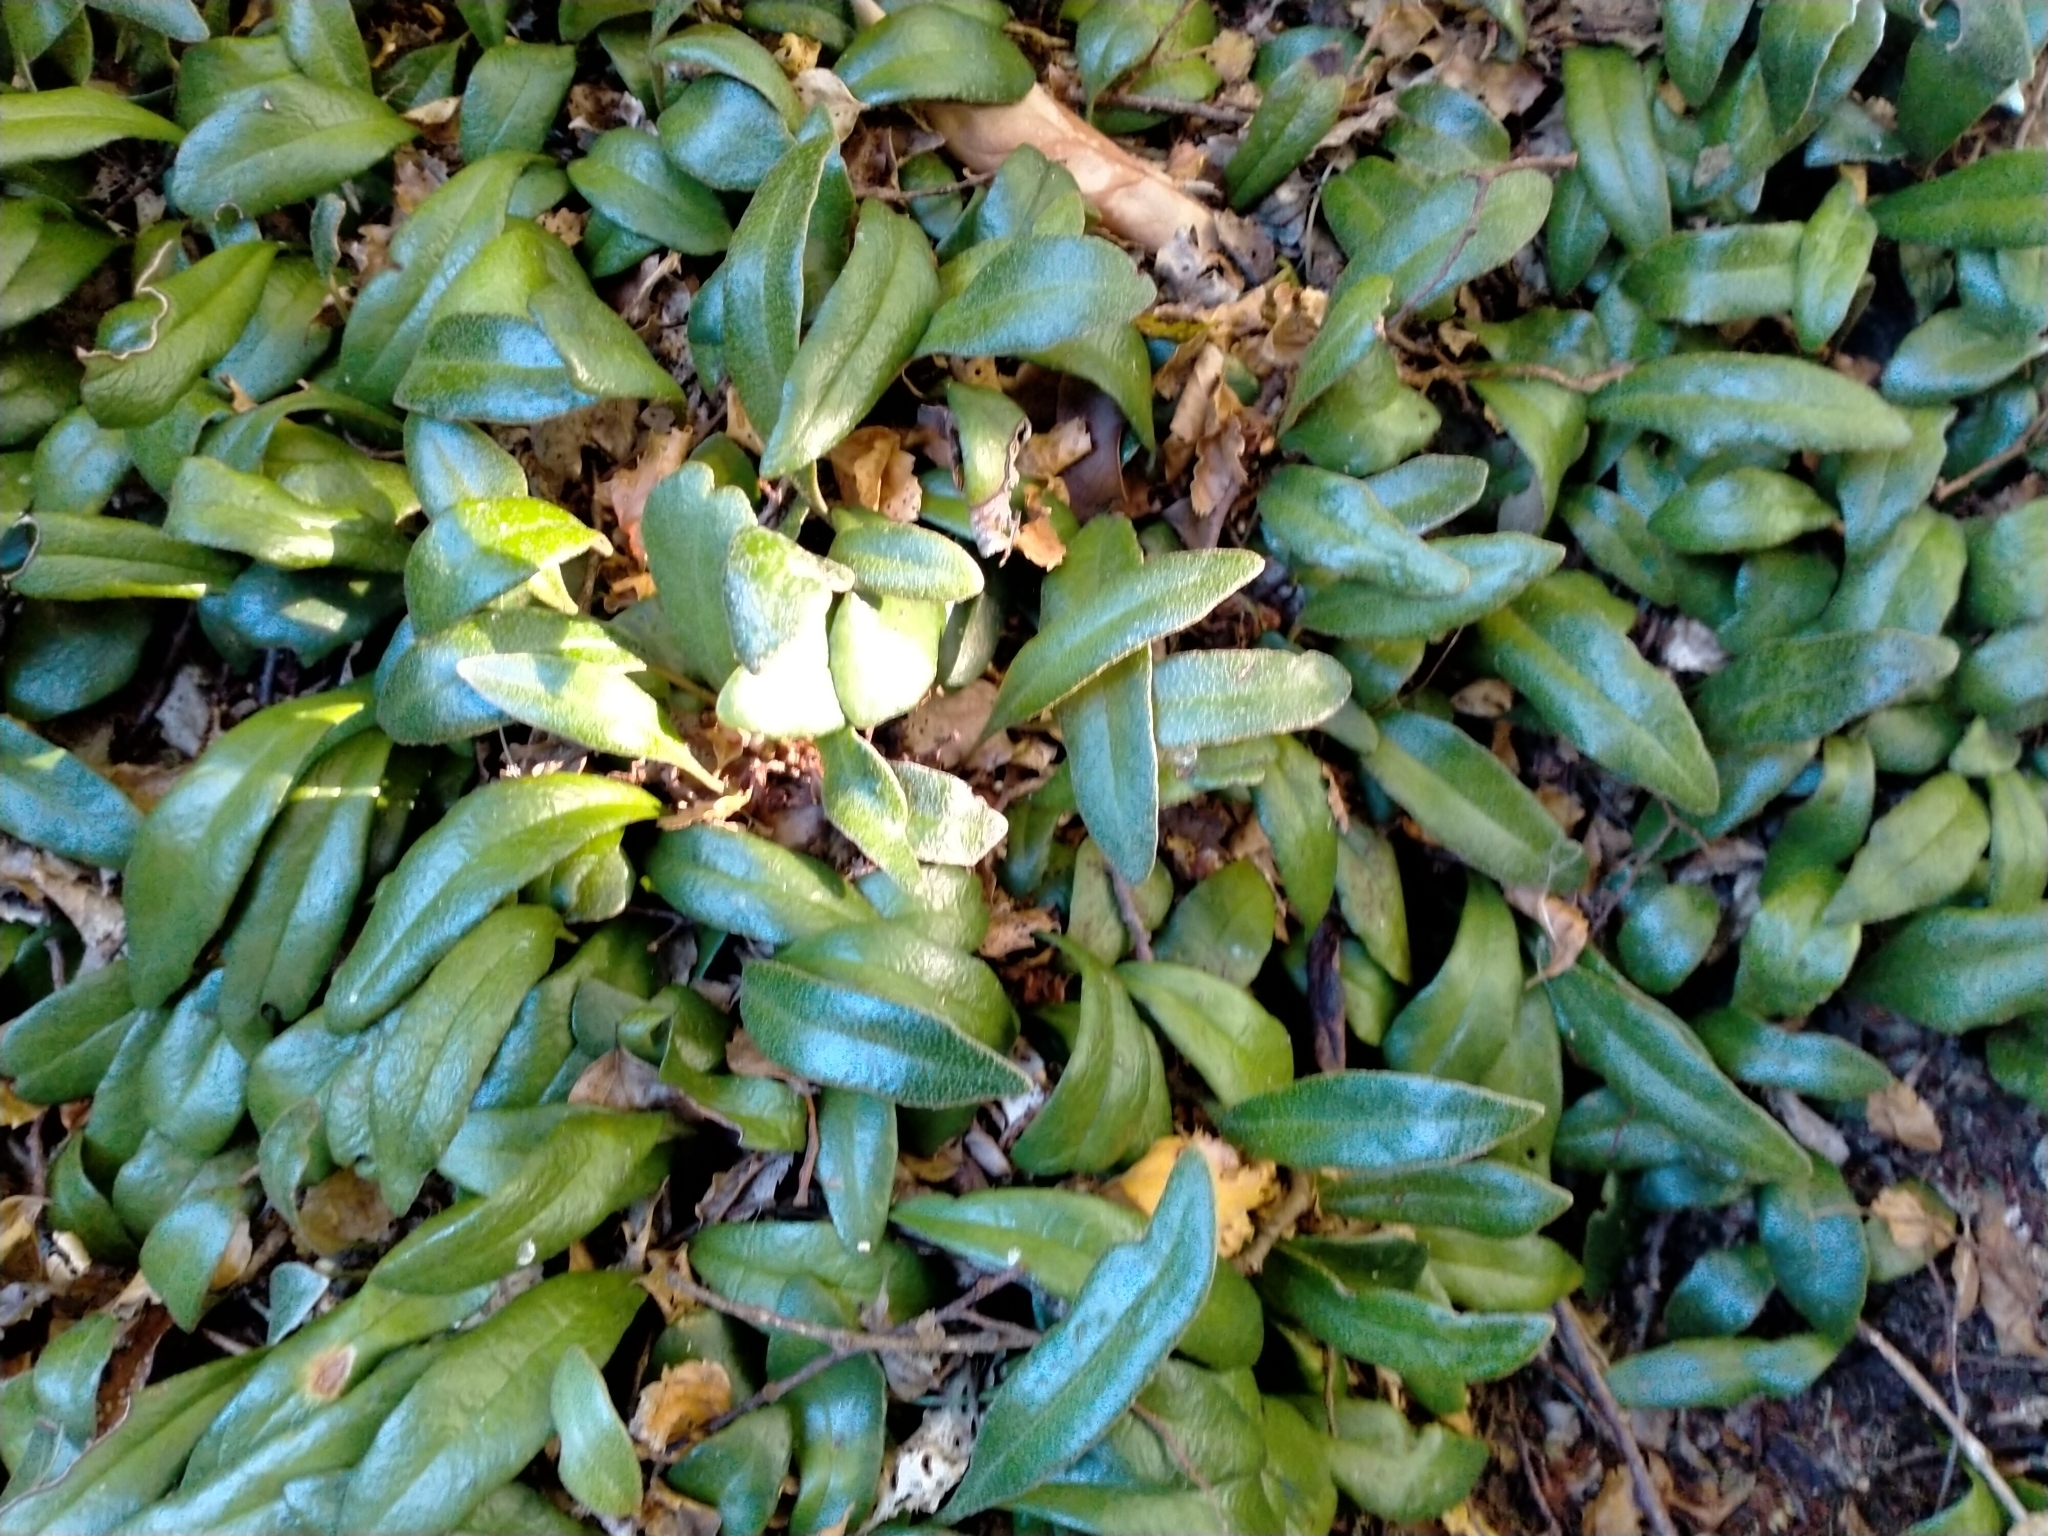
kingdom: Plantae
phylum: Tracheophyta
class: Polypodiopsida
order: Polypodiales
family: Polypodiaceae
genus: Pyrrosia
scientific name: Pyrrosia eleagnifolia
